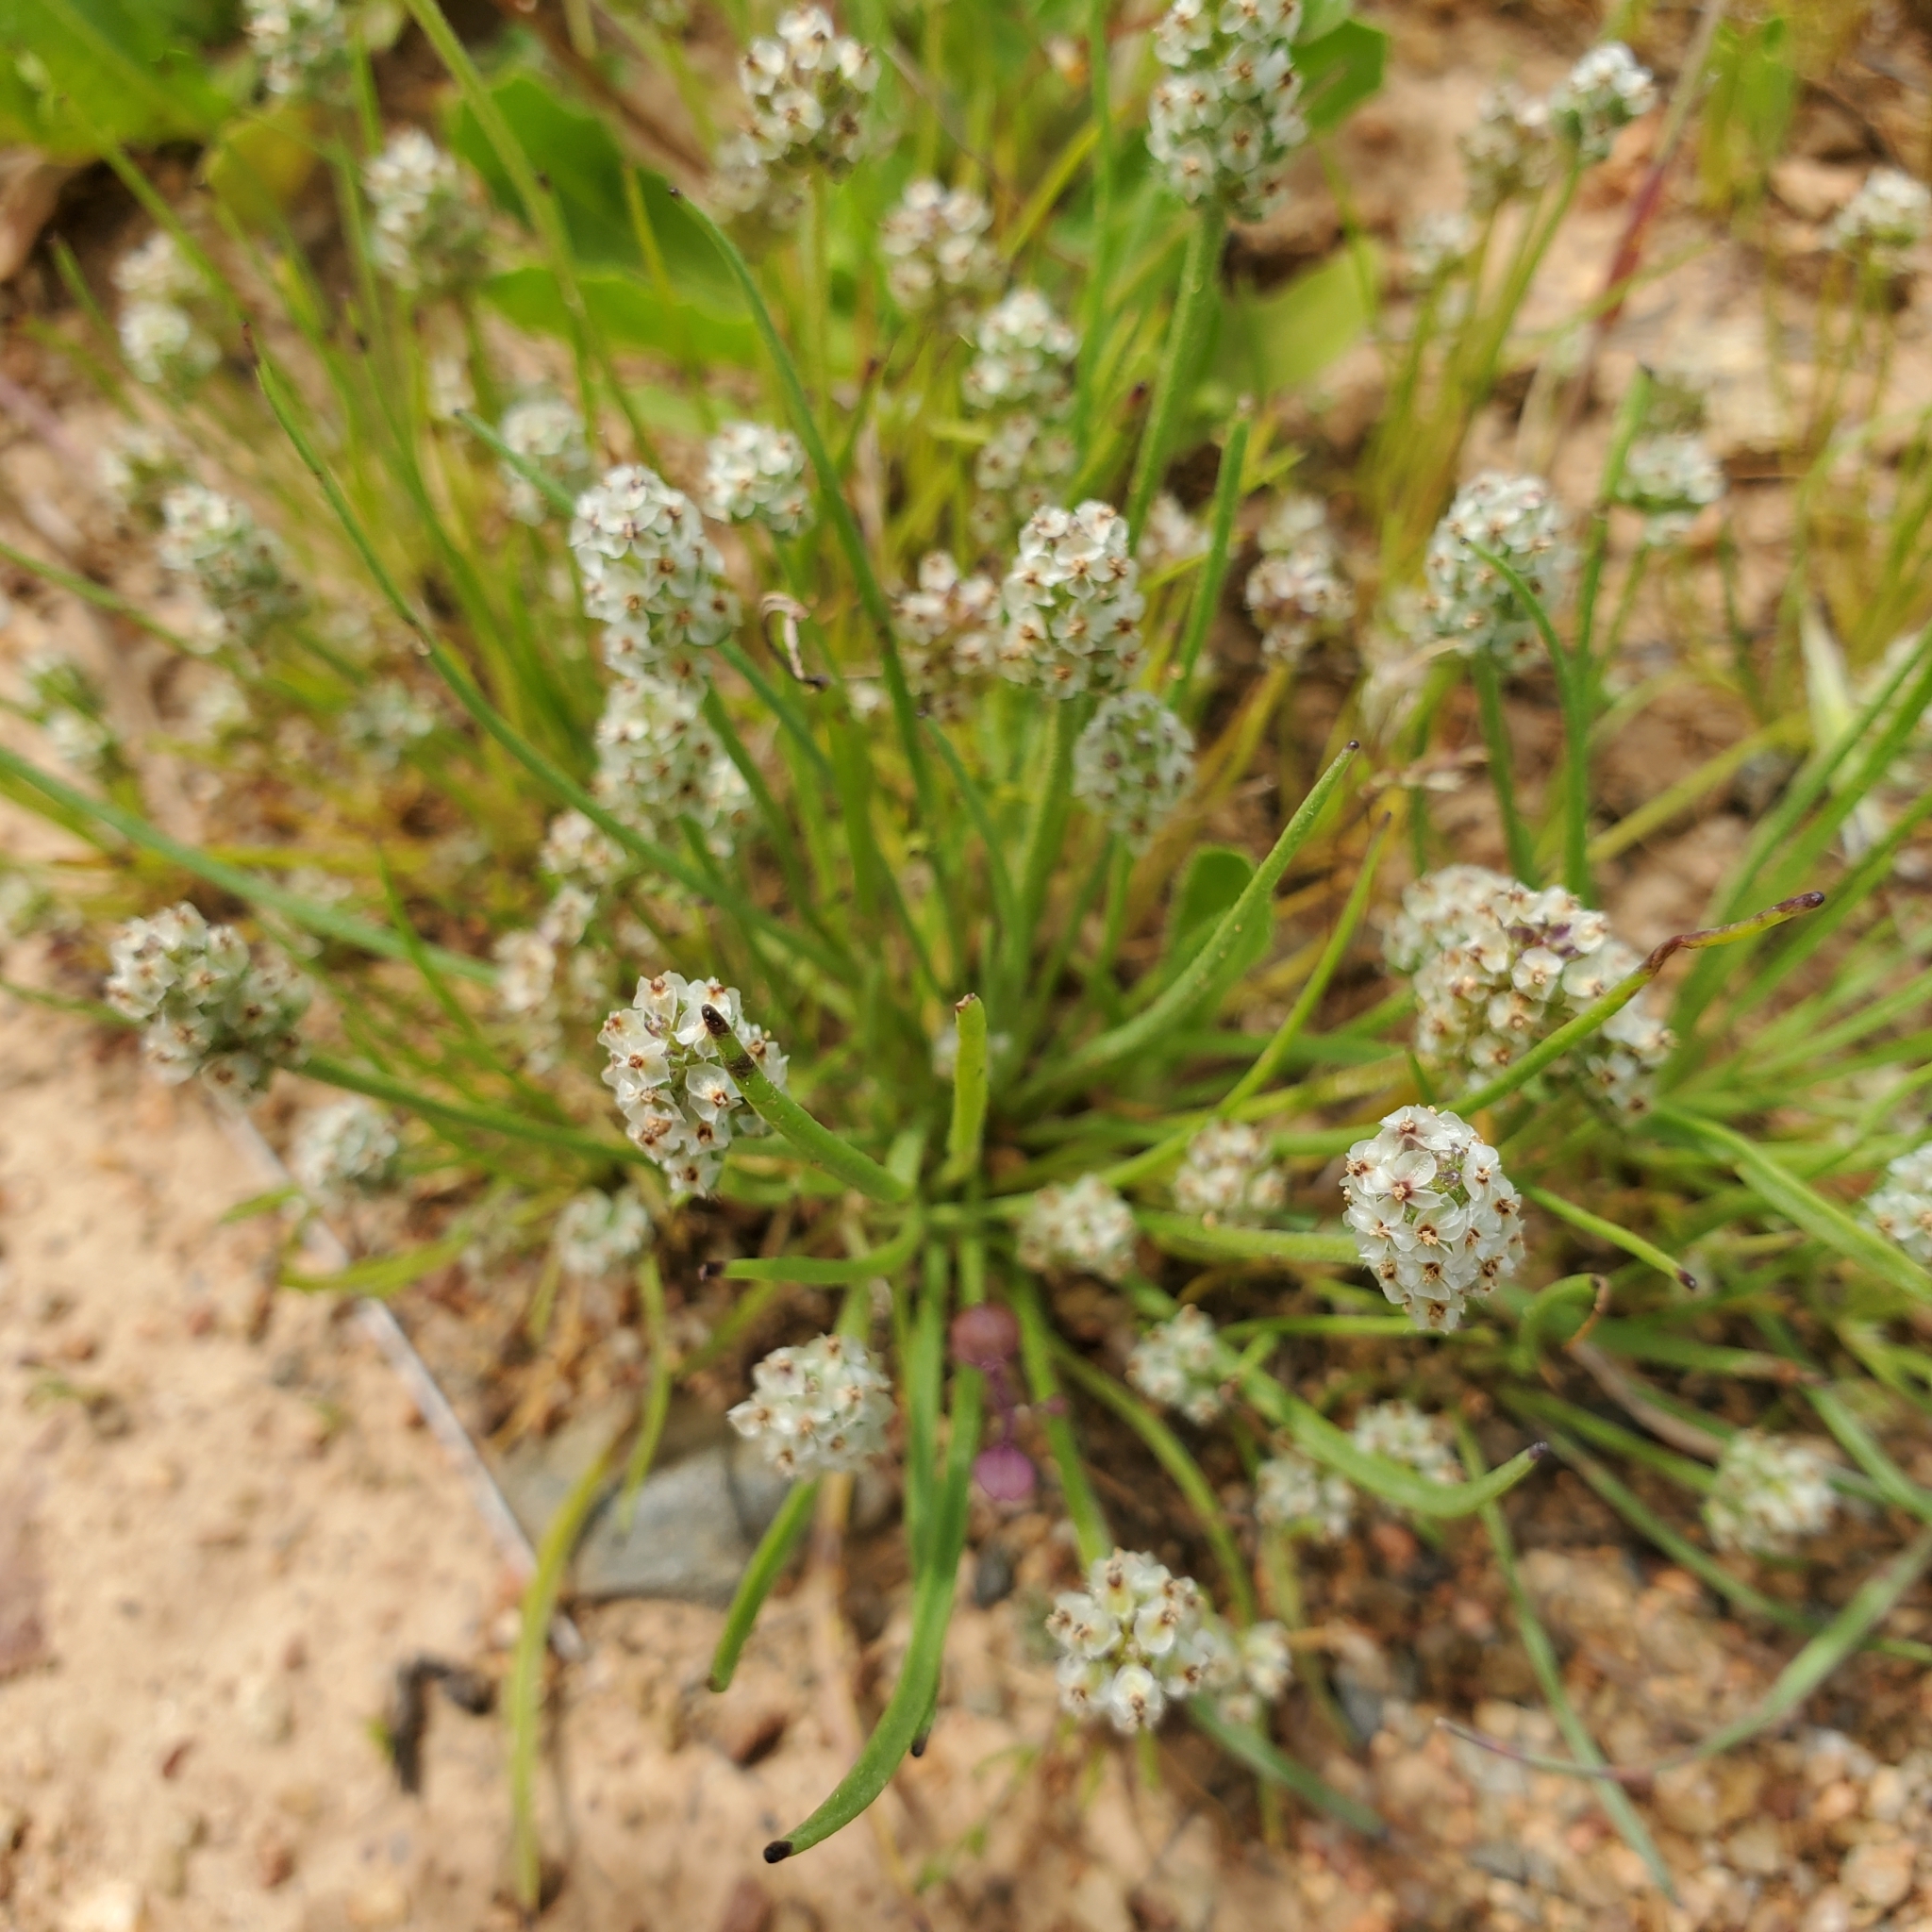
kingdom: Plantae
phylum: Tracheophyta
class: Magnoliopsida
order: Lamiales
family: Plantaginaceae
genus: Plantago
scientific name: Plantago erecta
